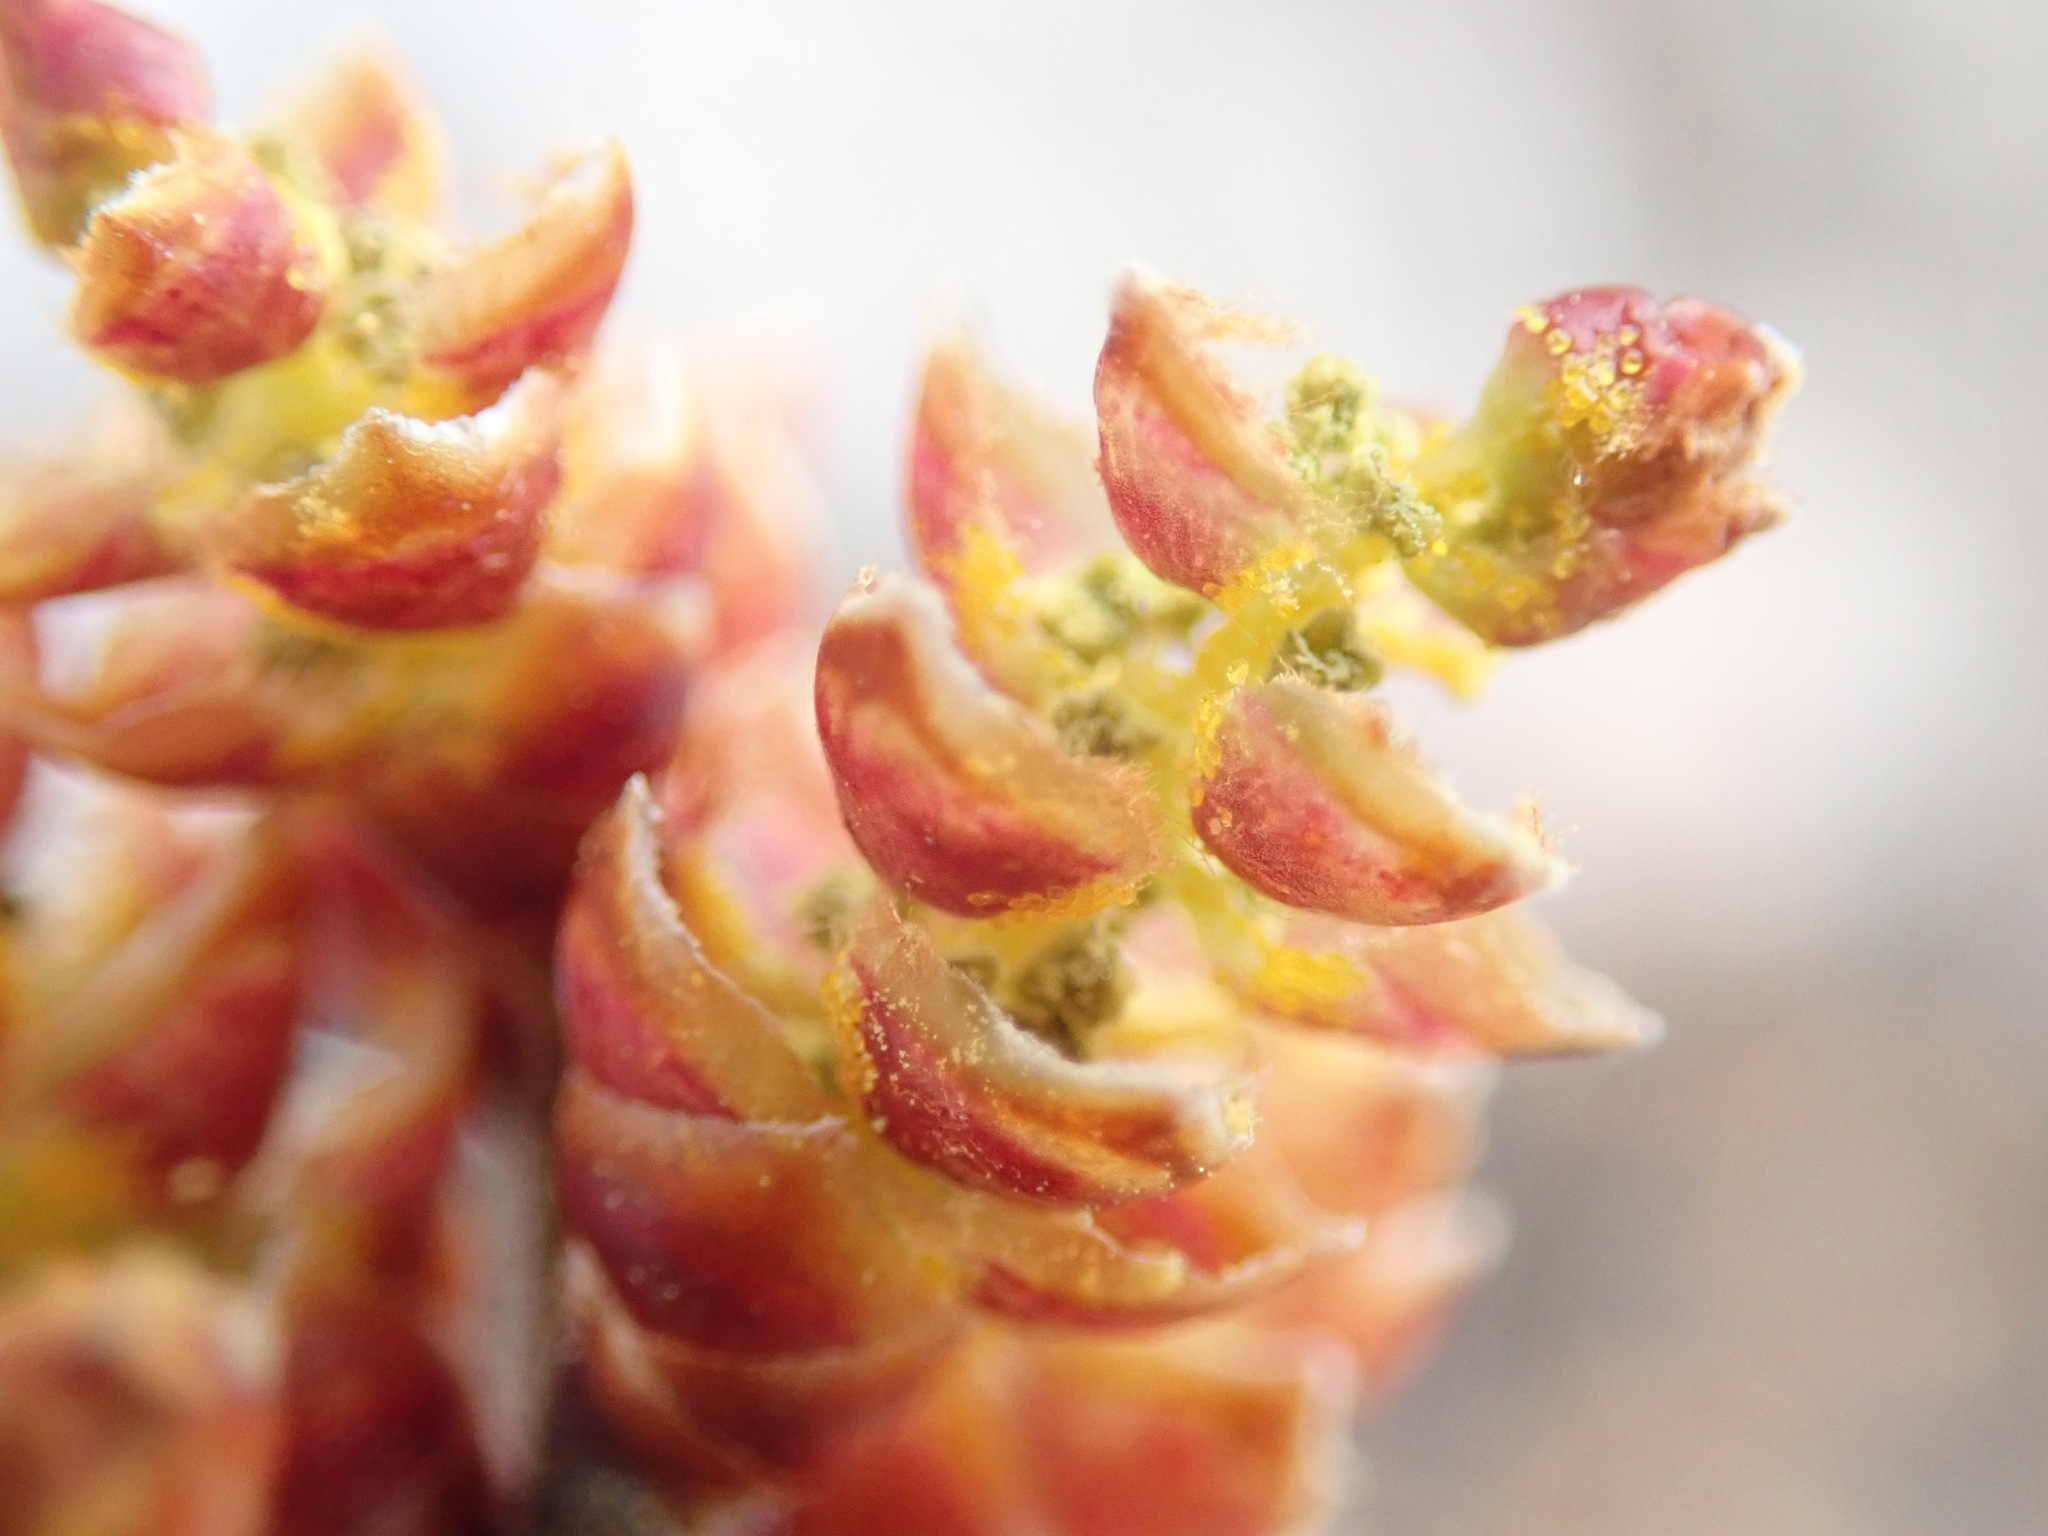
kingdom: Plantae
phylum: Tracheophyta
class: Magnoliopsida
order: Fagales
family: Myricaceae
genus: Myrica
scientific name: Myrica gale
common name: Sweet gale
